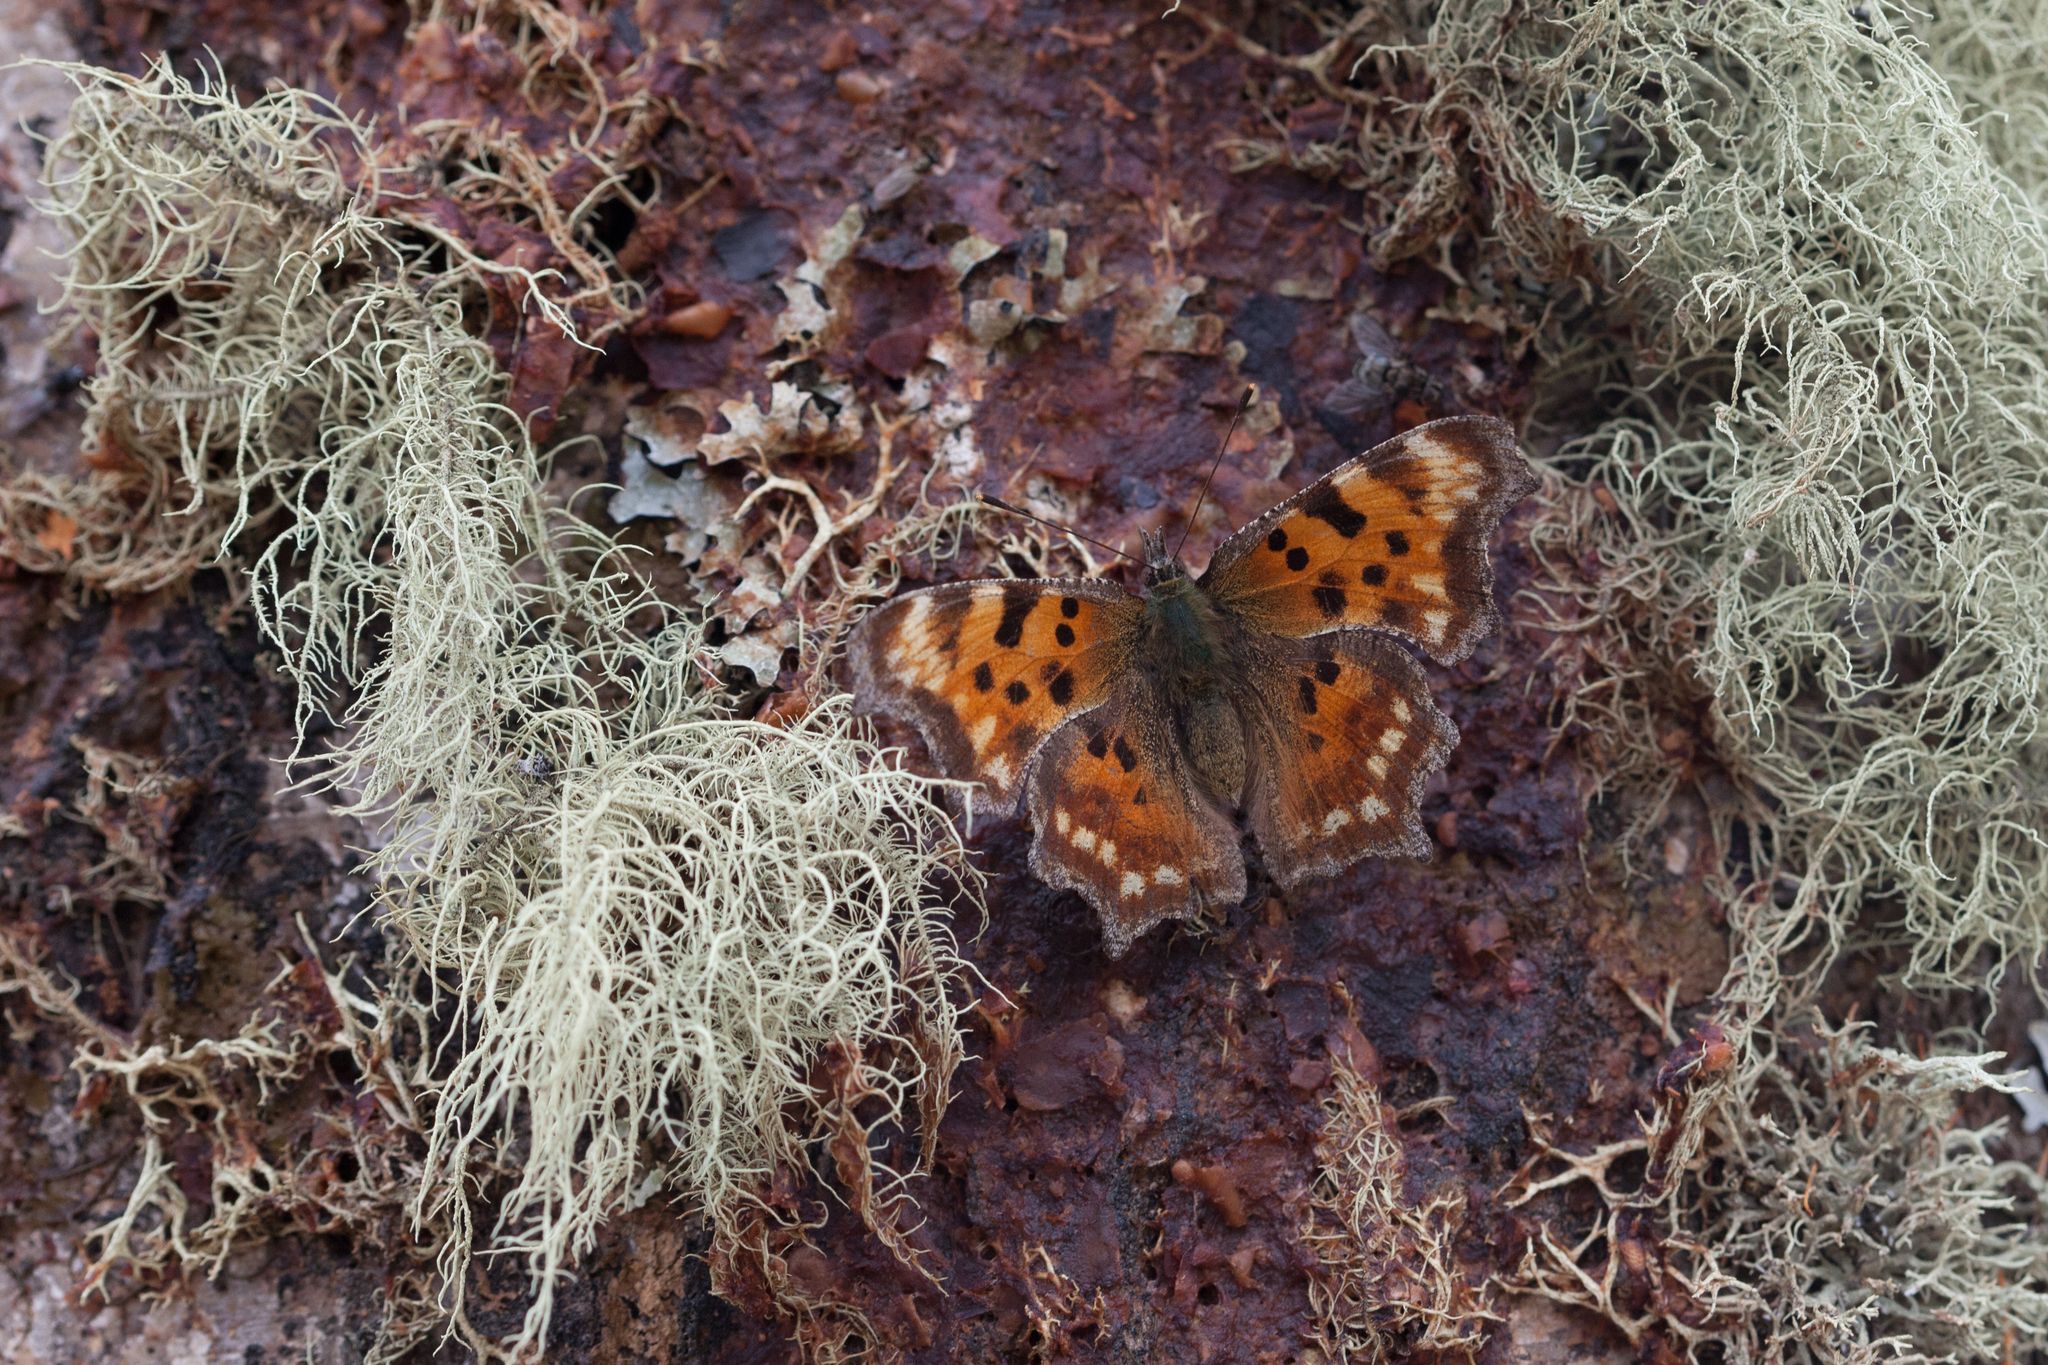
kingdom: Animalia
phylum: Arthropoda
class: Insecta
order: Lepidoptera
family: Nymphalidae
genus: Polygonia
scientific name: Polygonia c-album
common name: Comma
